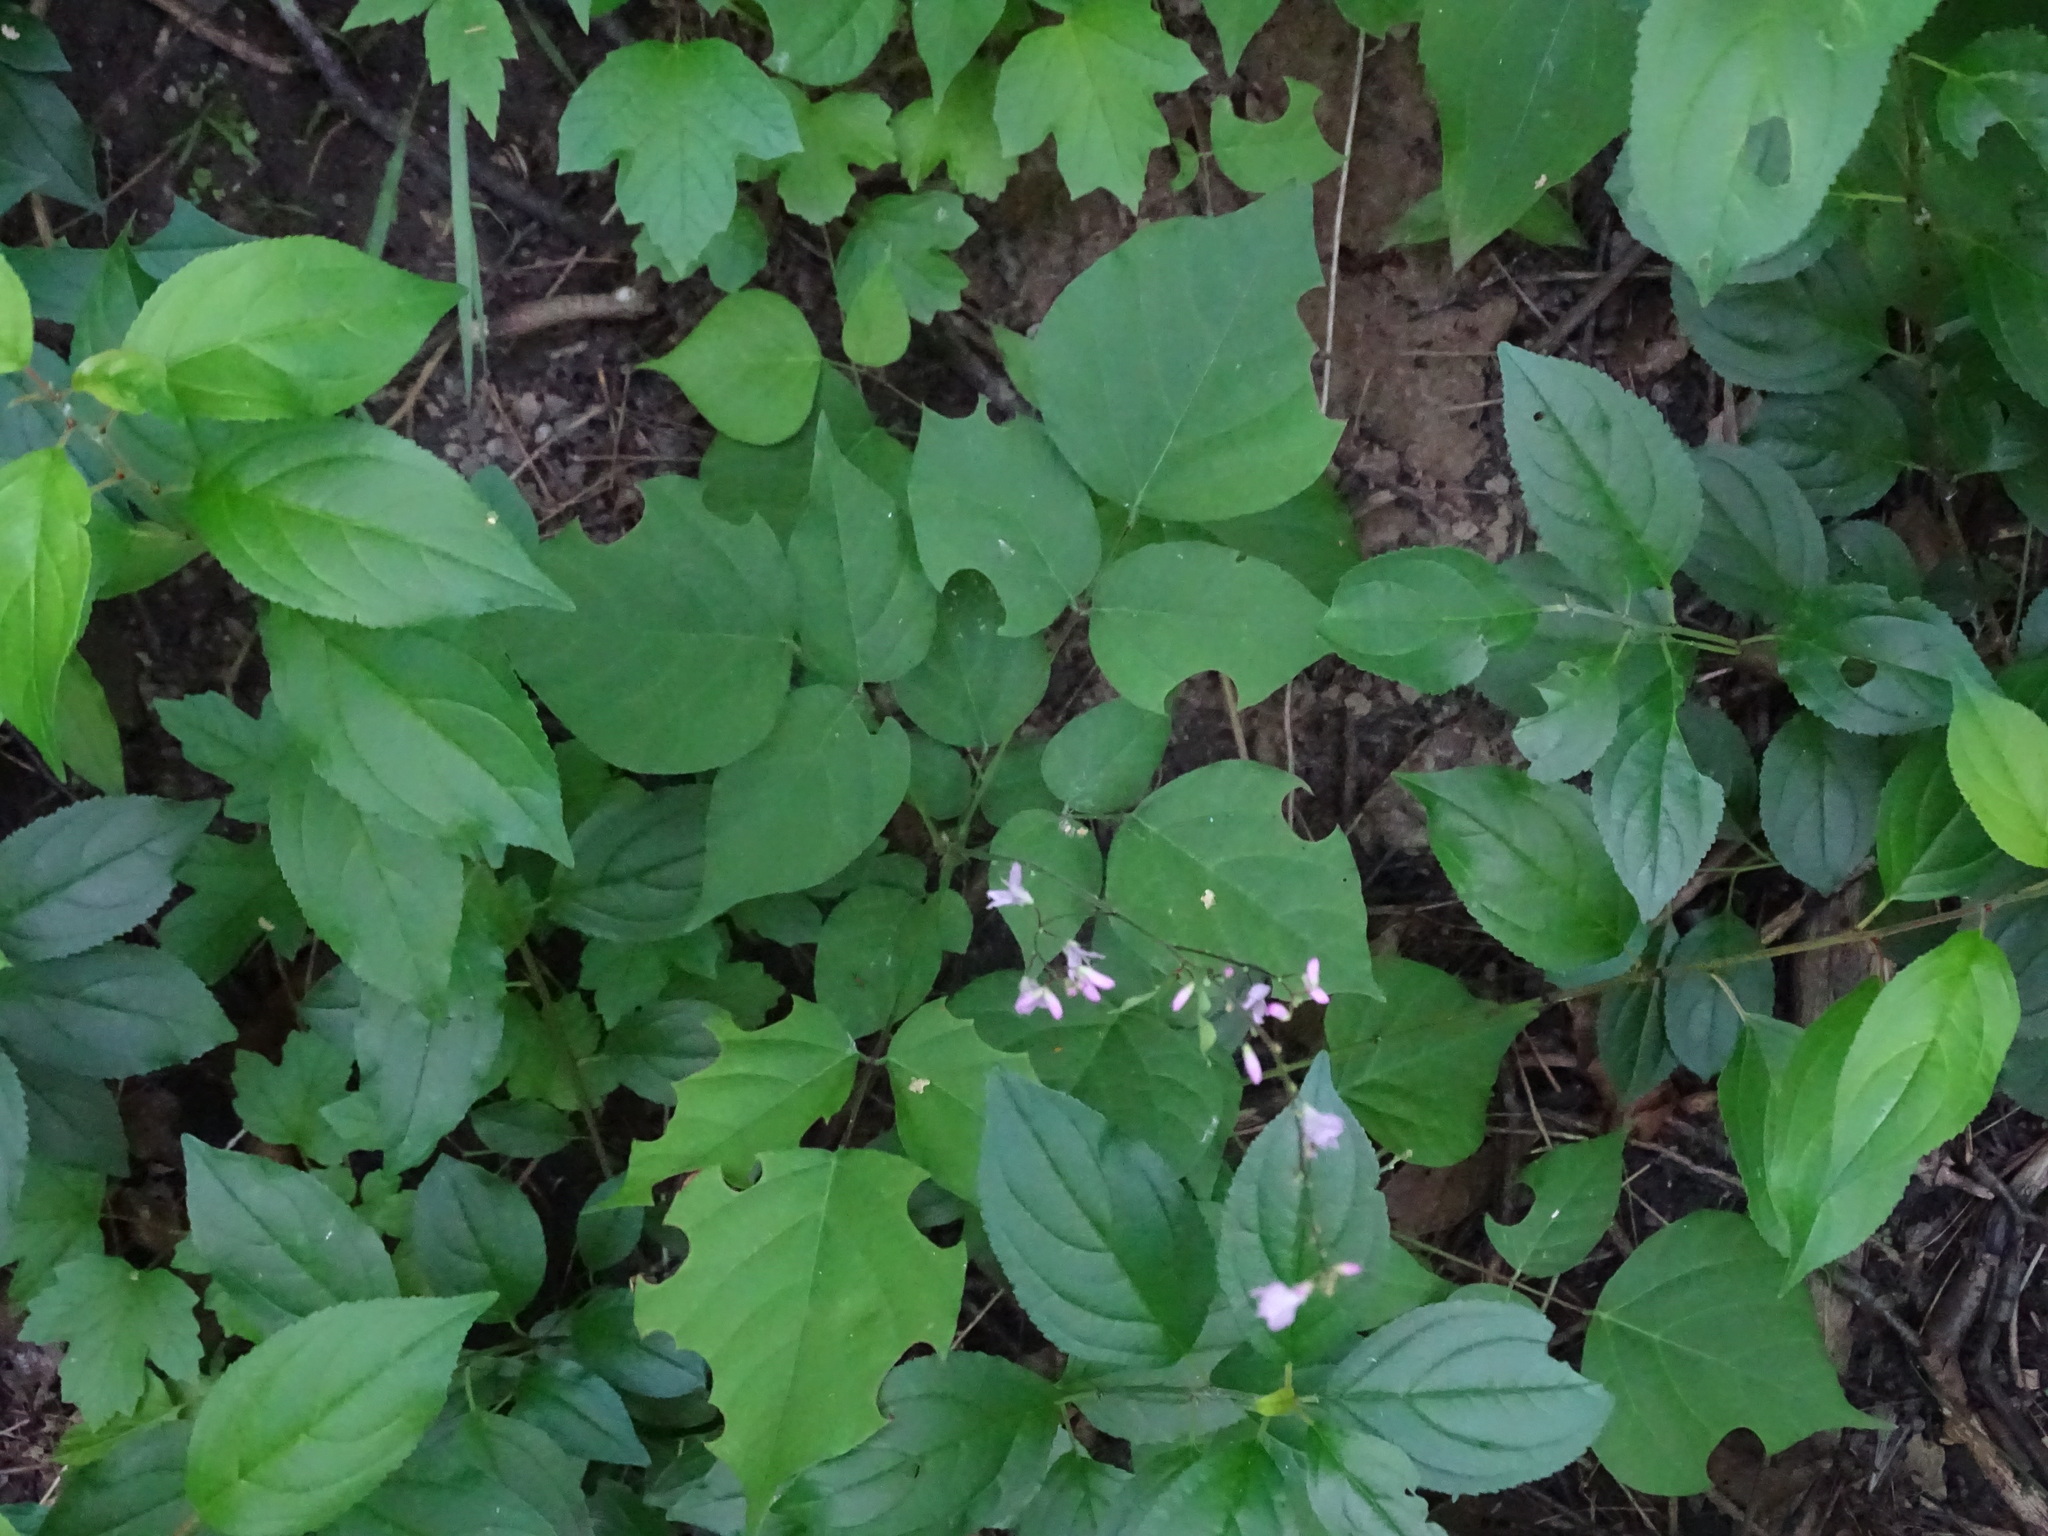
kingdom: Plantae
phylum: Tracheophyta
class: Magnoliopsida
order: Fabales
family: Fabaceae
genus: Hylodesmum
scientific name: Hylodesmum glutinosum
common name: Clustered-leaved tick-trefoil
